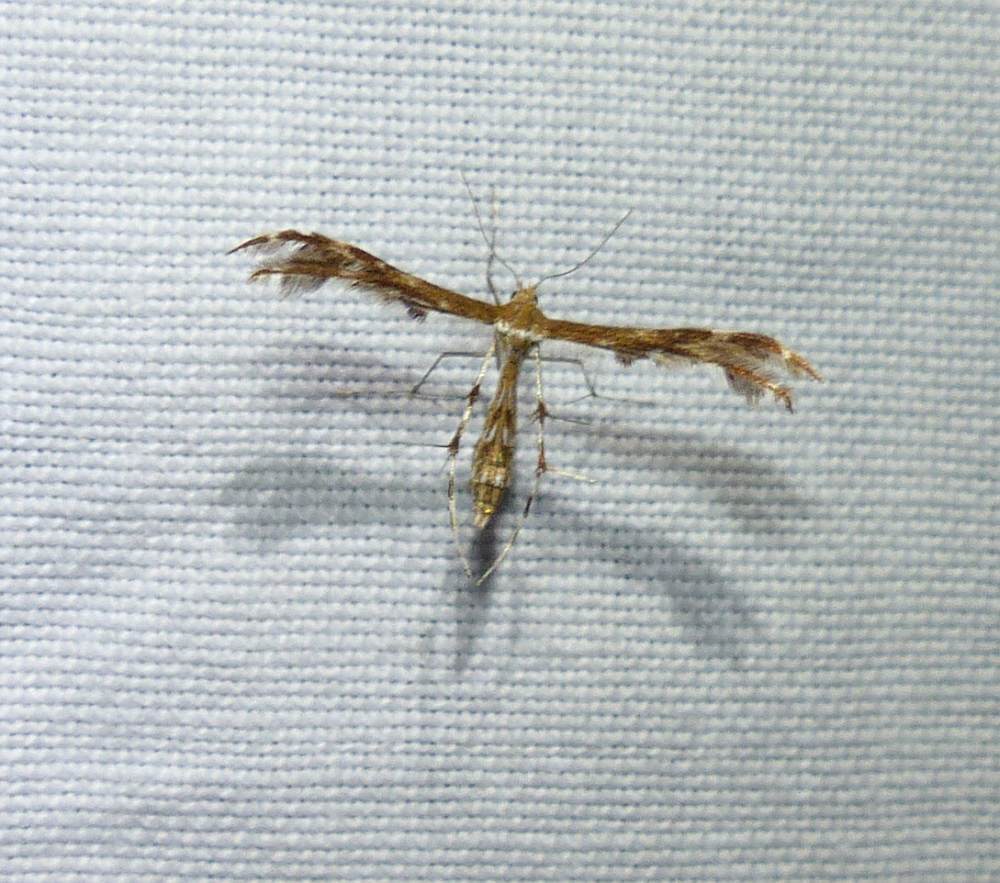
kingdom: Animalia
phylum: Arthropoda
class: Insecta
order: Lepidoptera
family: Pterophoridae
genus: Dejongia
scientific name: Dejongia lobidactylus
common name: Lobed plume moth
